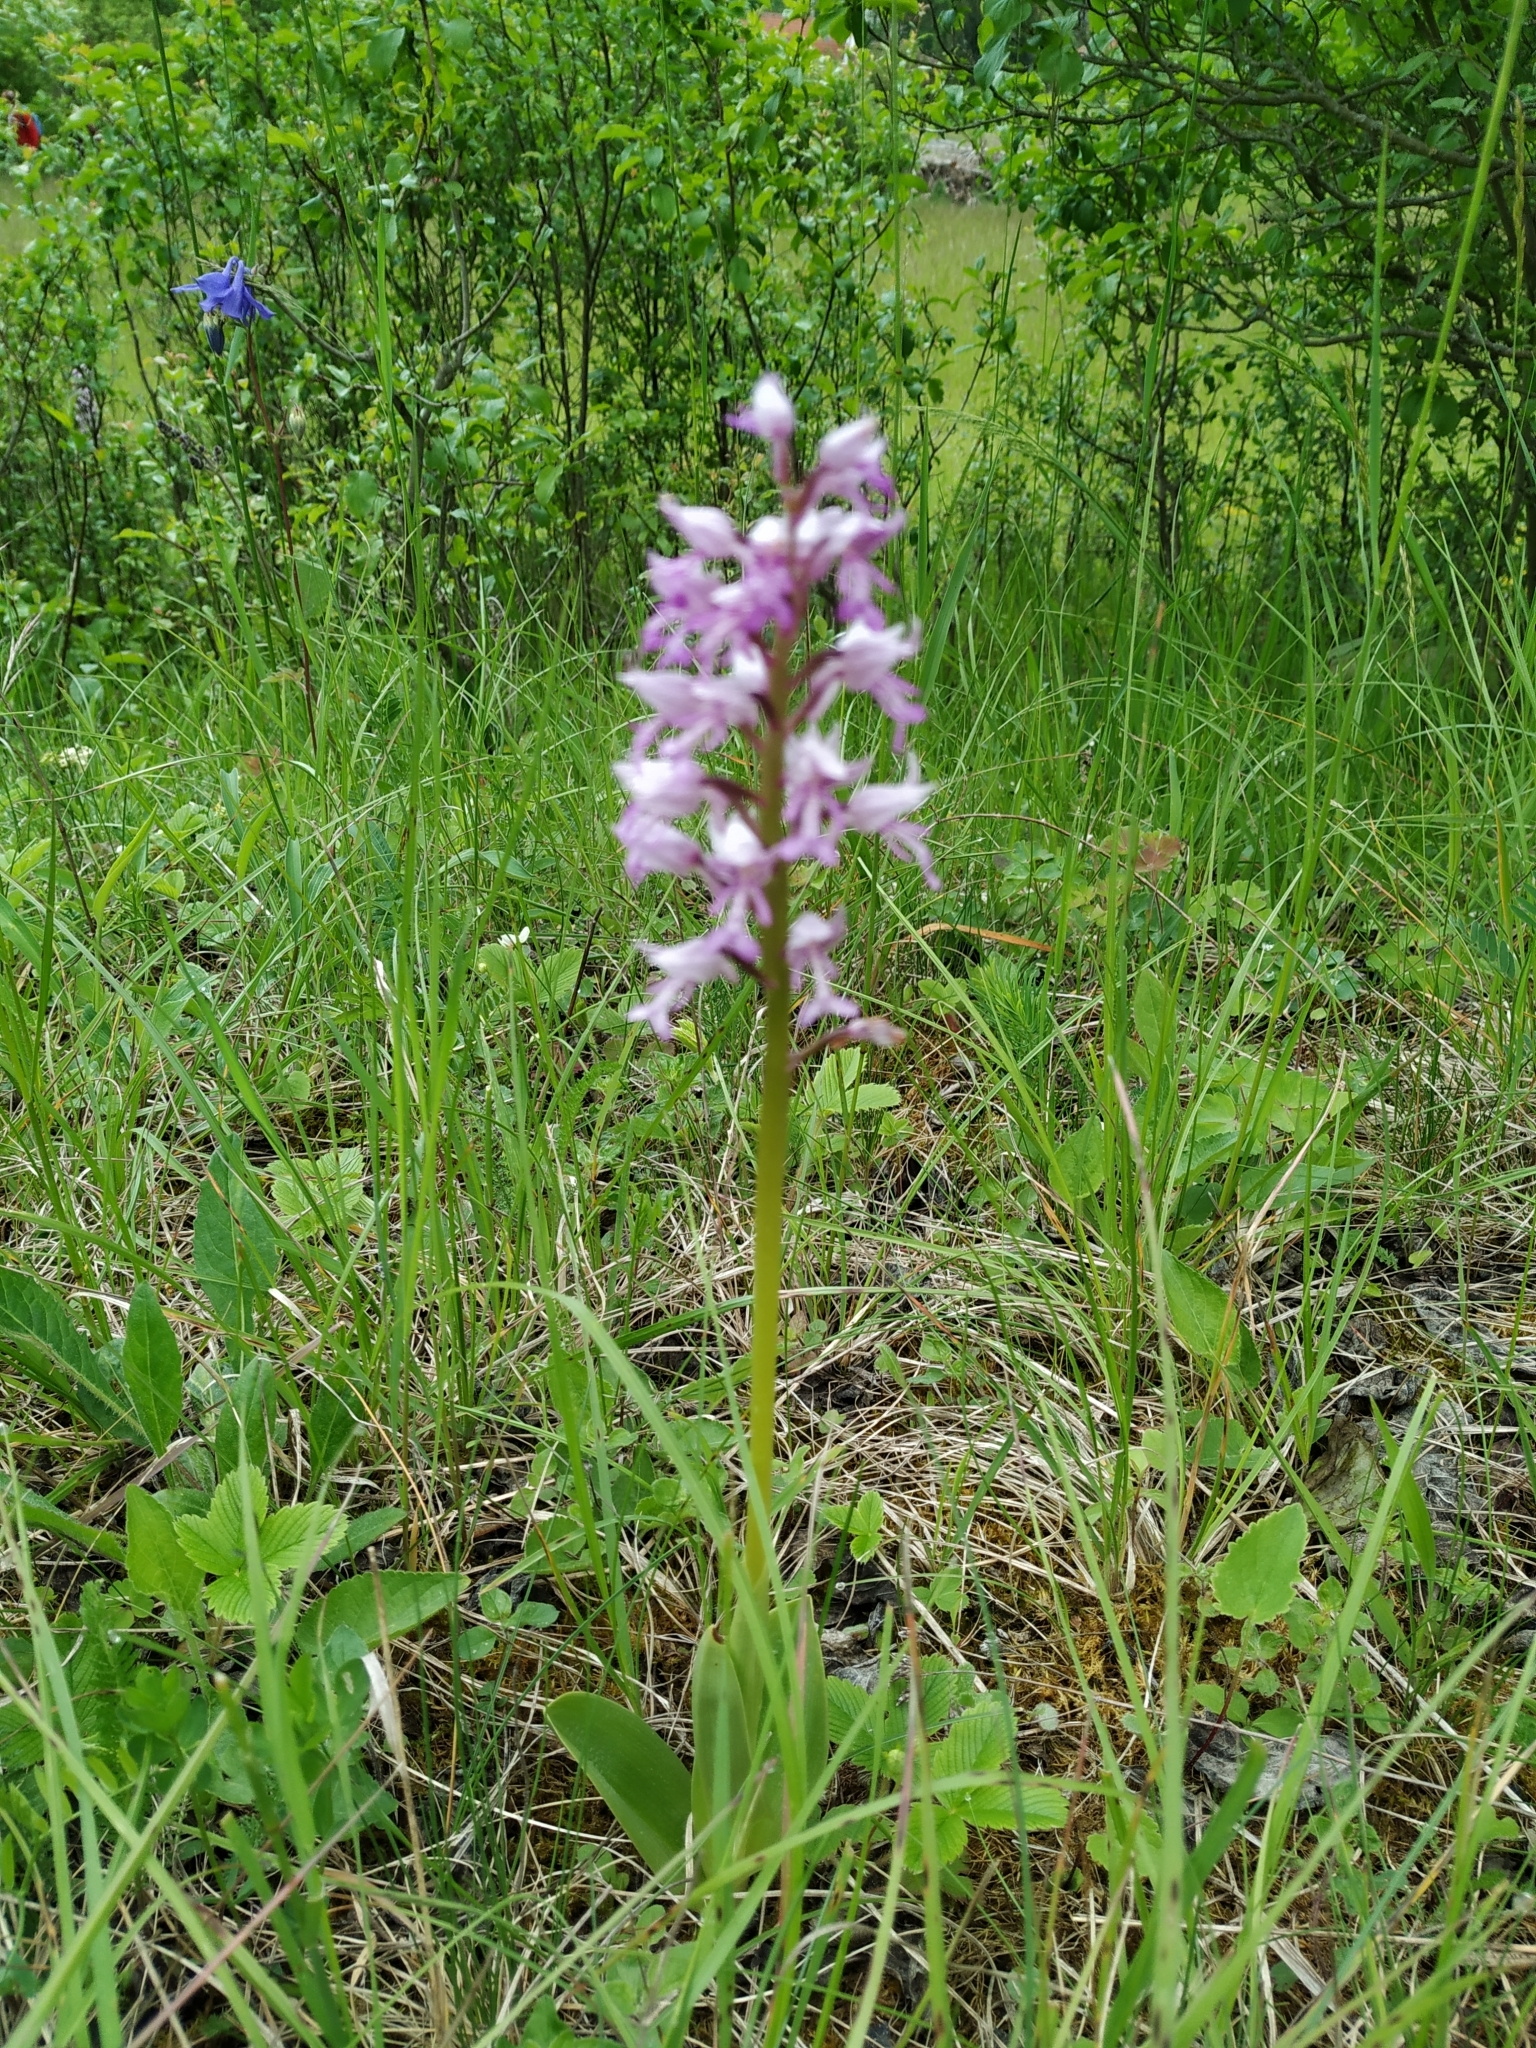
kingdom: Plantae
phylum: Tracheophyta
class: Liliopsida
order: Asparagales
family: Orchidaceae
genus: Orchis
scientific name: Orchis militaris
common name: Military orchid
